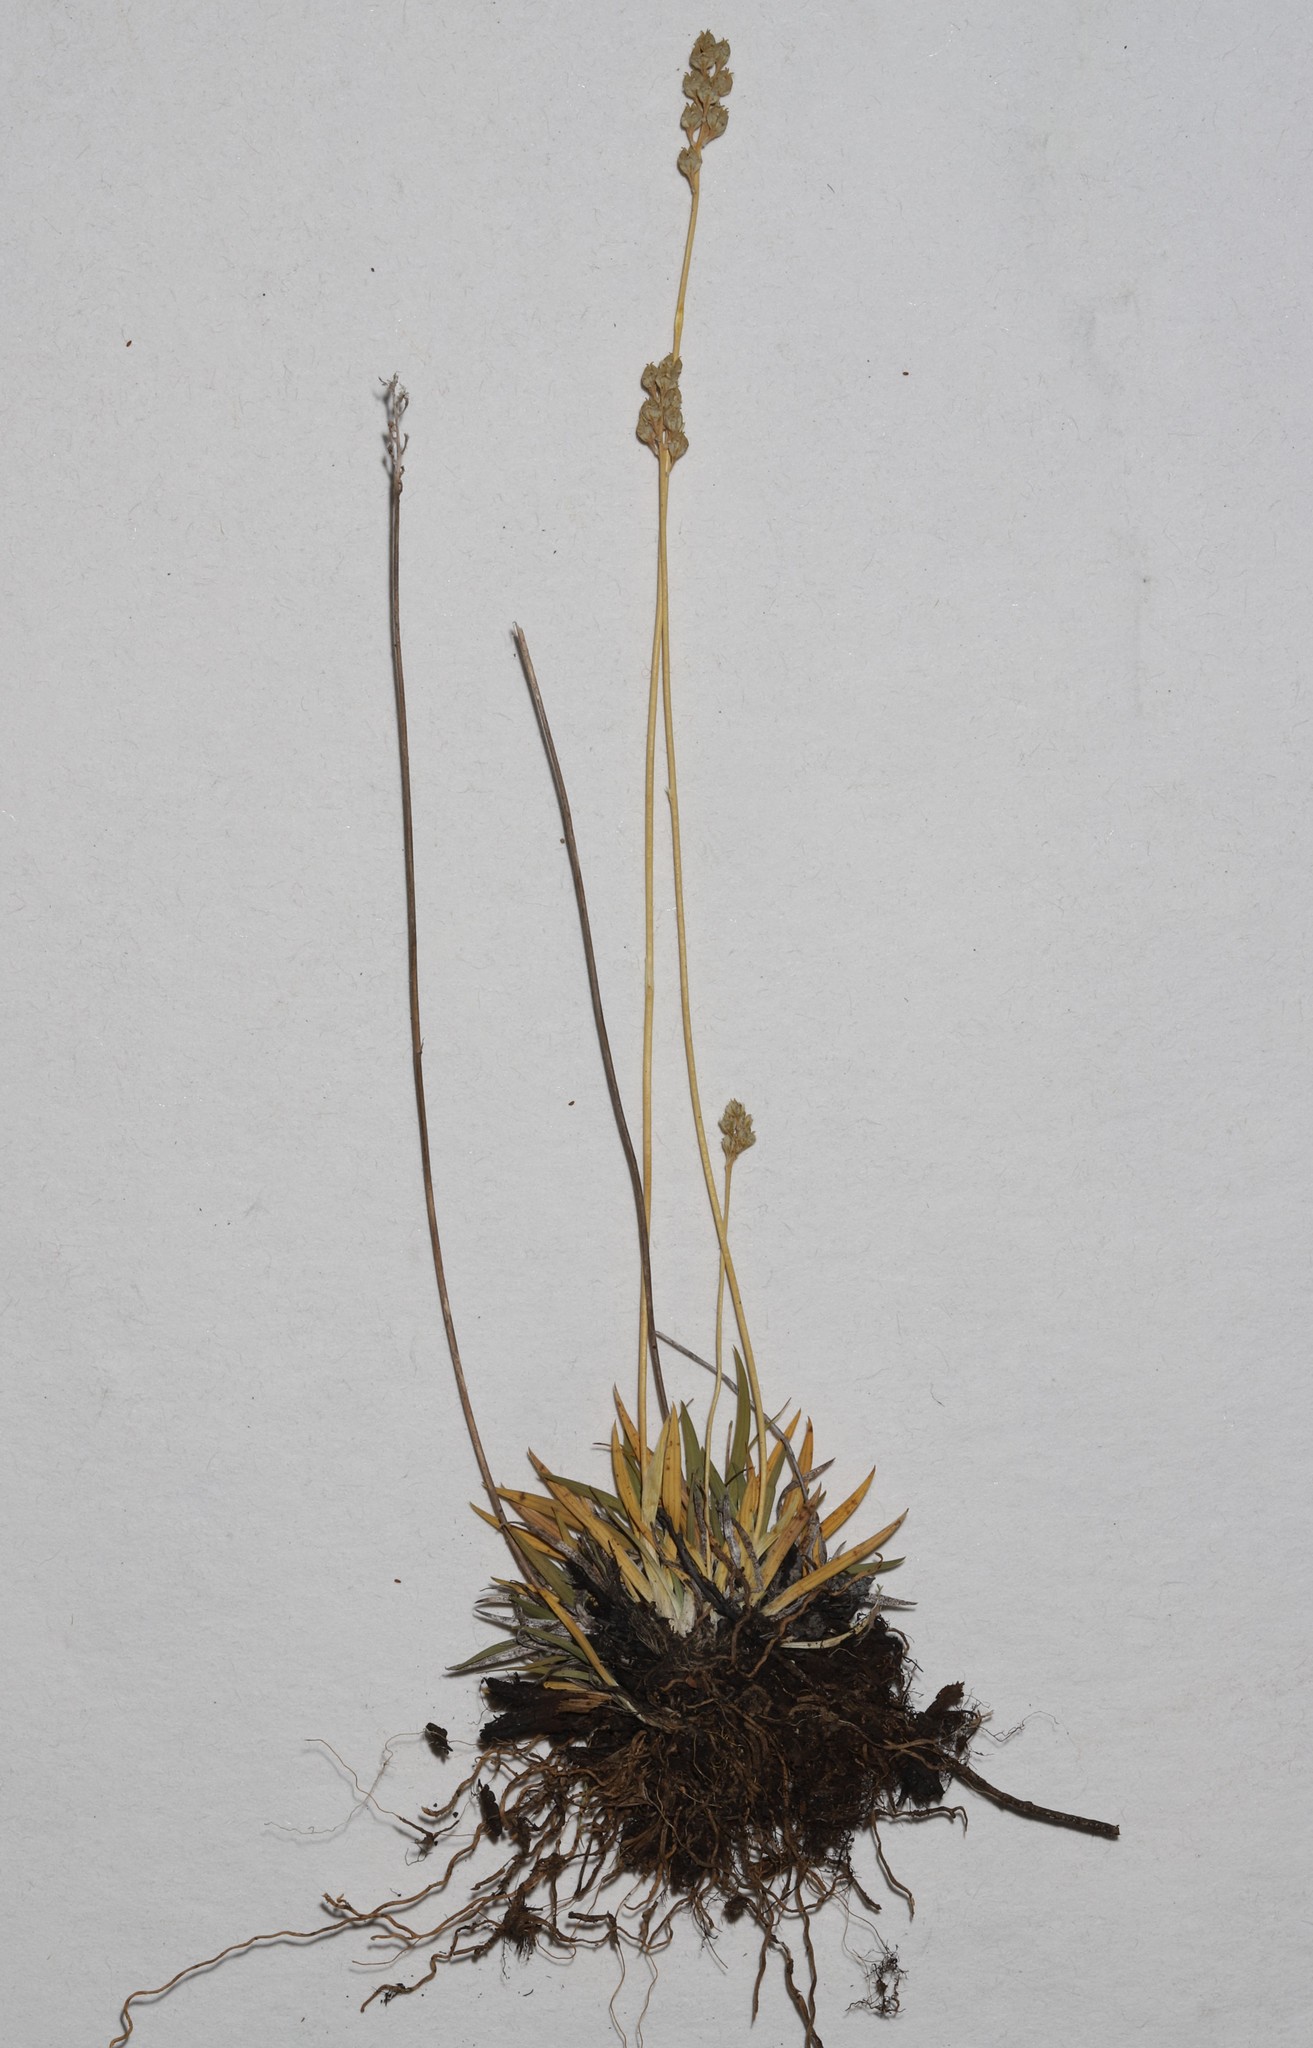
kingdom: Plantae
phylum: Tracheophyta
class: Liliopsida
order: Alismatales
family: Tofieldiaceae
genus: Tofieldia
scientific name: Tofieldia pusilla
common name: Scottish false asphodel
